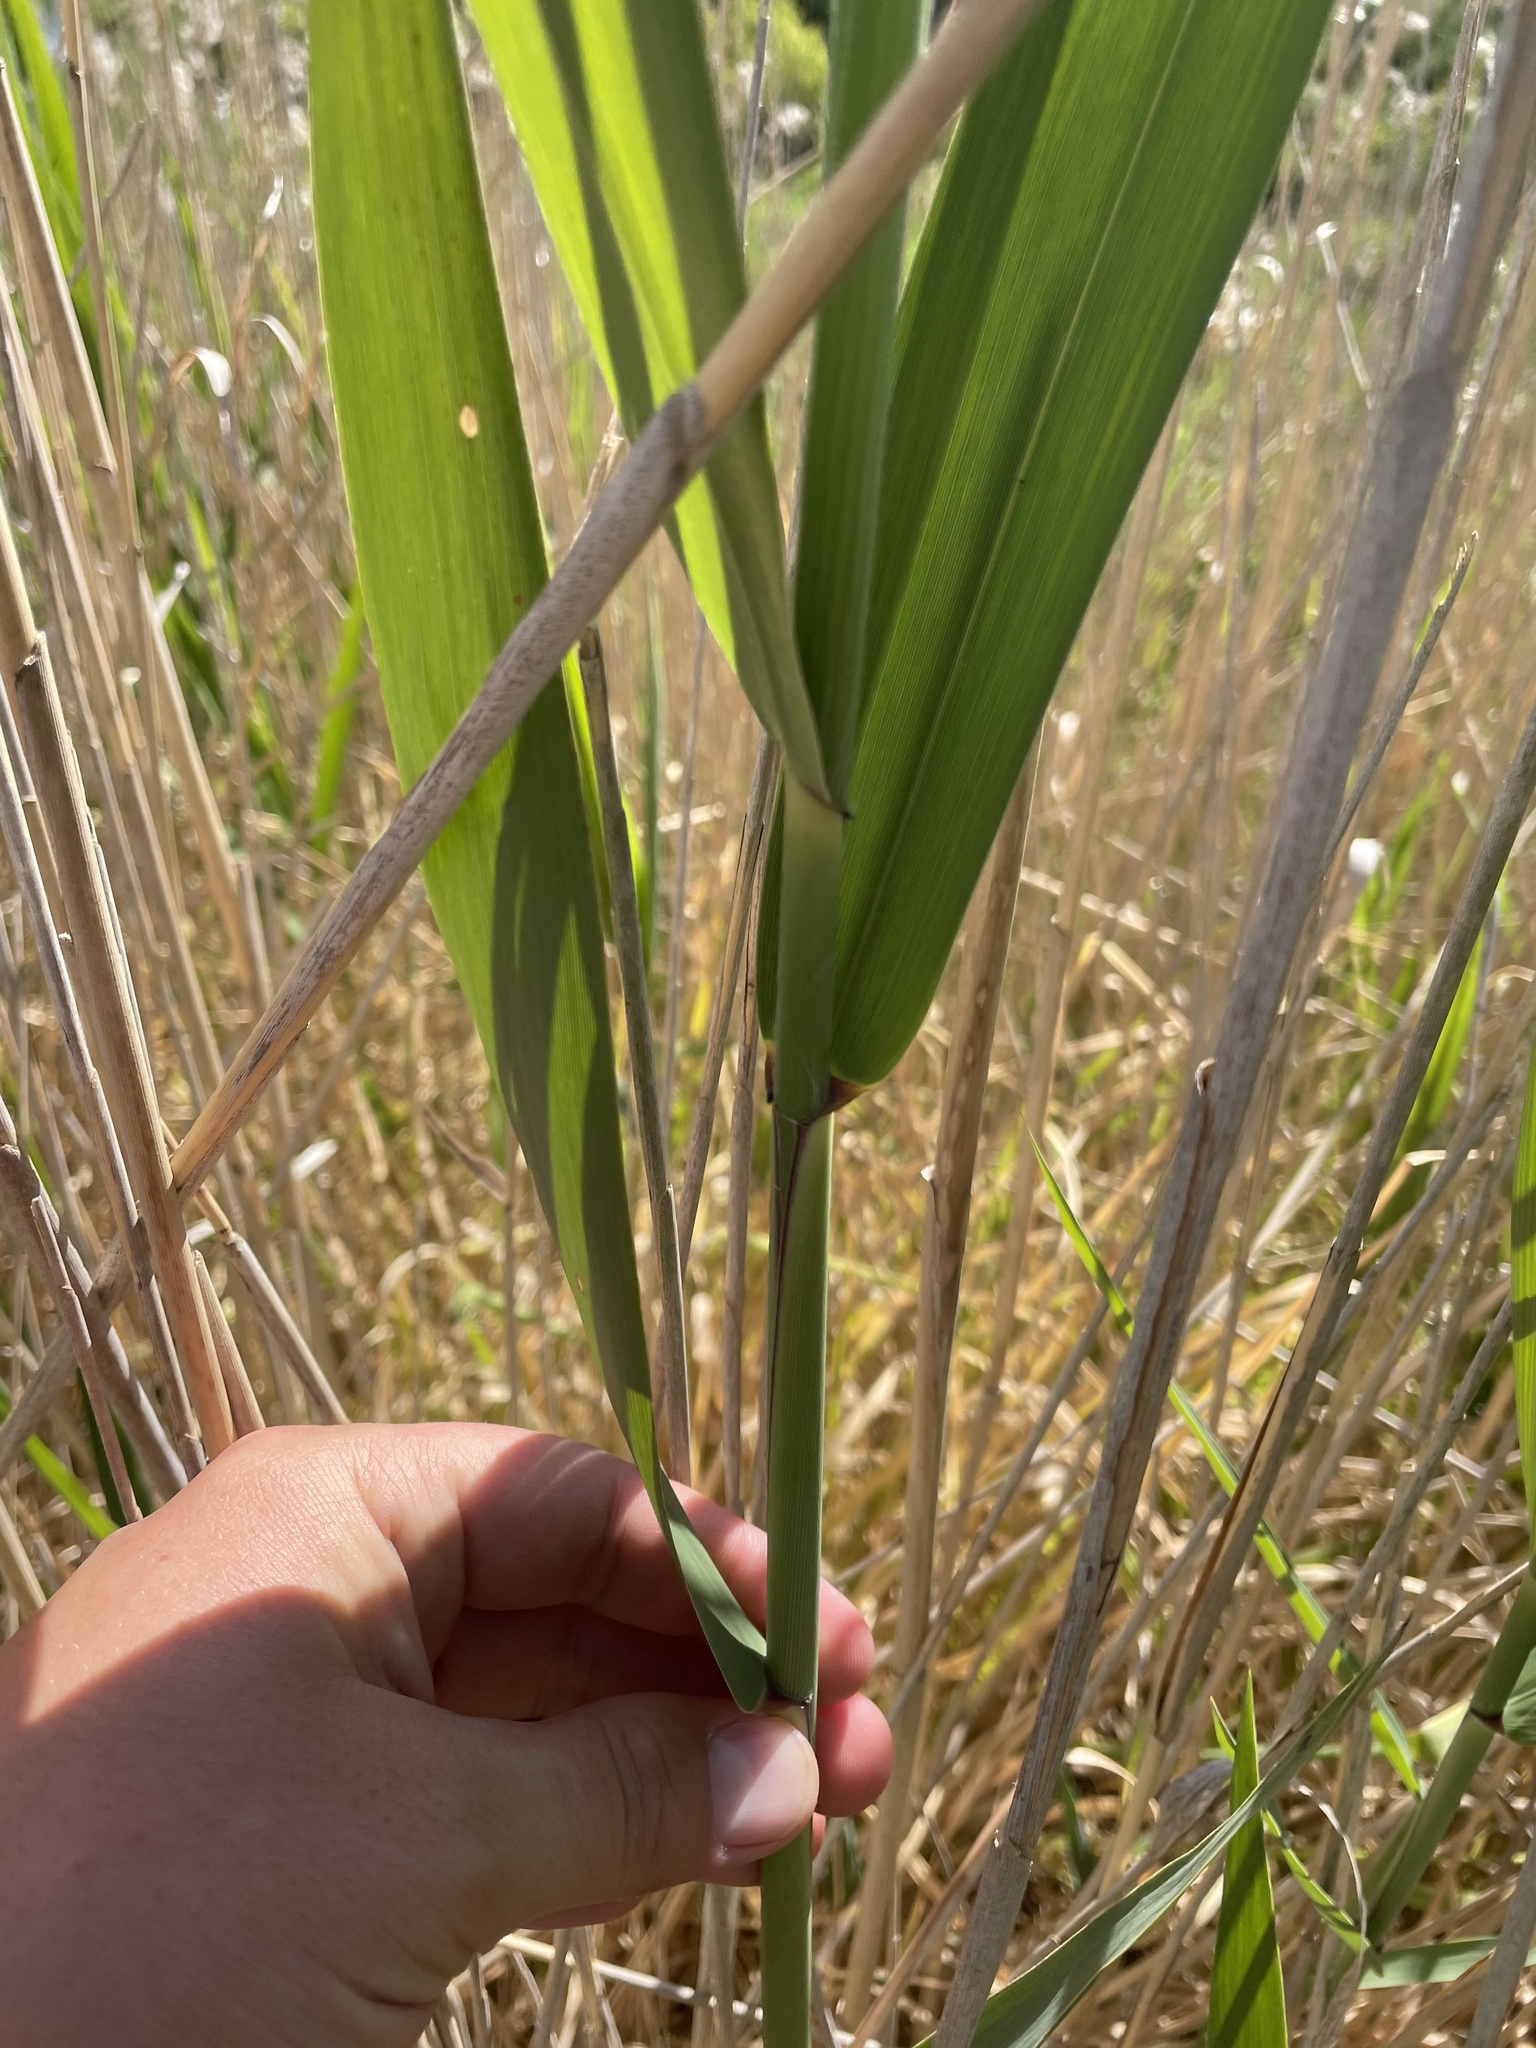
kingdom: Plantae
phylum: Tracheophyta
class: Liliopsida
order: Poales
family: Poaceae
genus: Phragmites
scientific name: Phragmites australis
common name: Common reed
